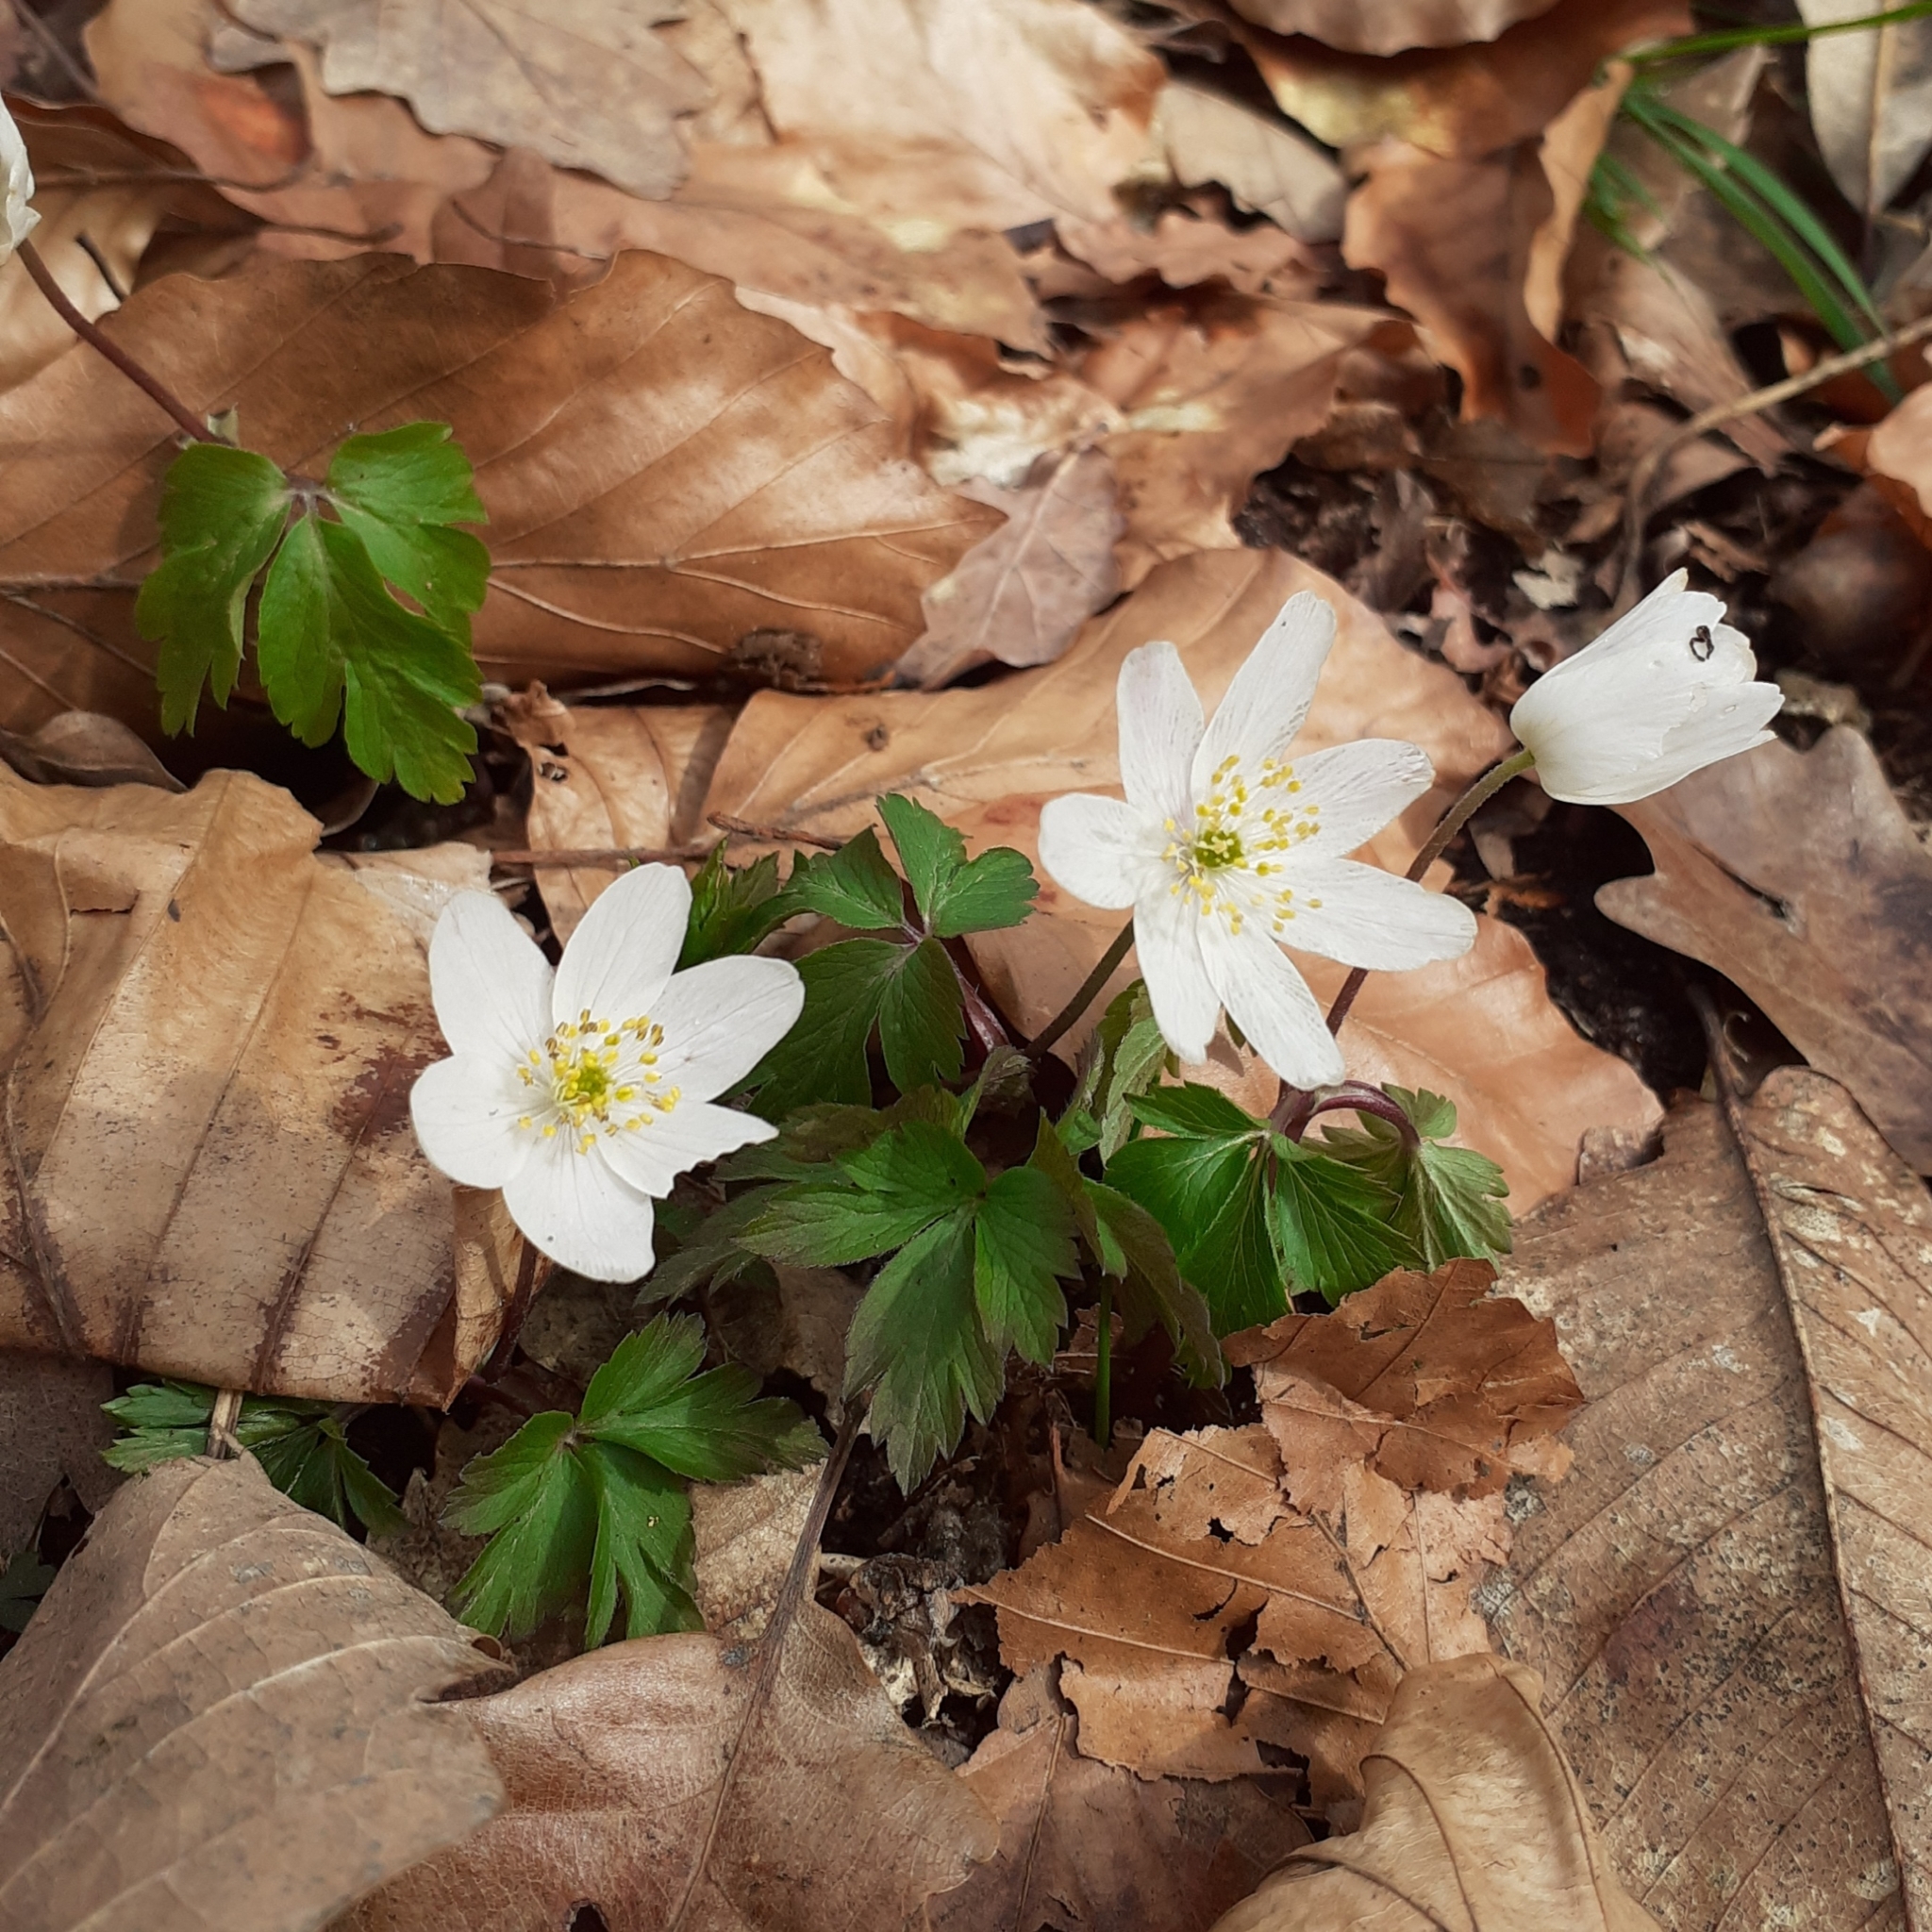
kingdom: Plantae
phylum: Tracheophyta
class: Magnoliopsida
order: Ranunculales
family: Ranunculaceae
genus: Anemone
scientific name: Anemone nemorosa
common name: Wood anemone
